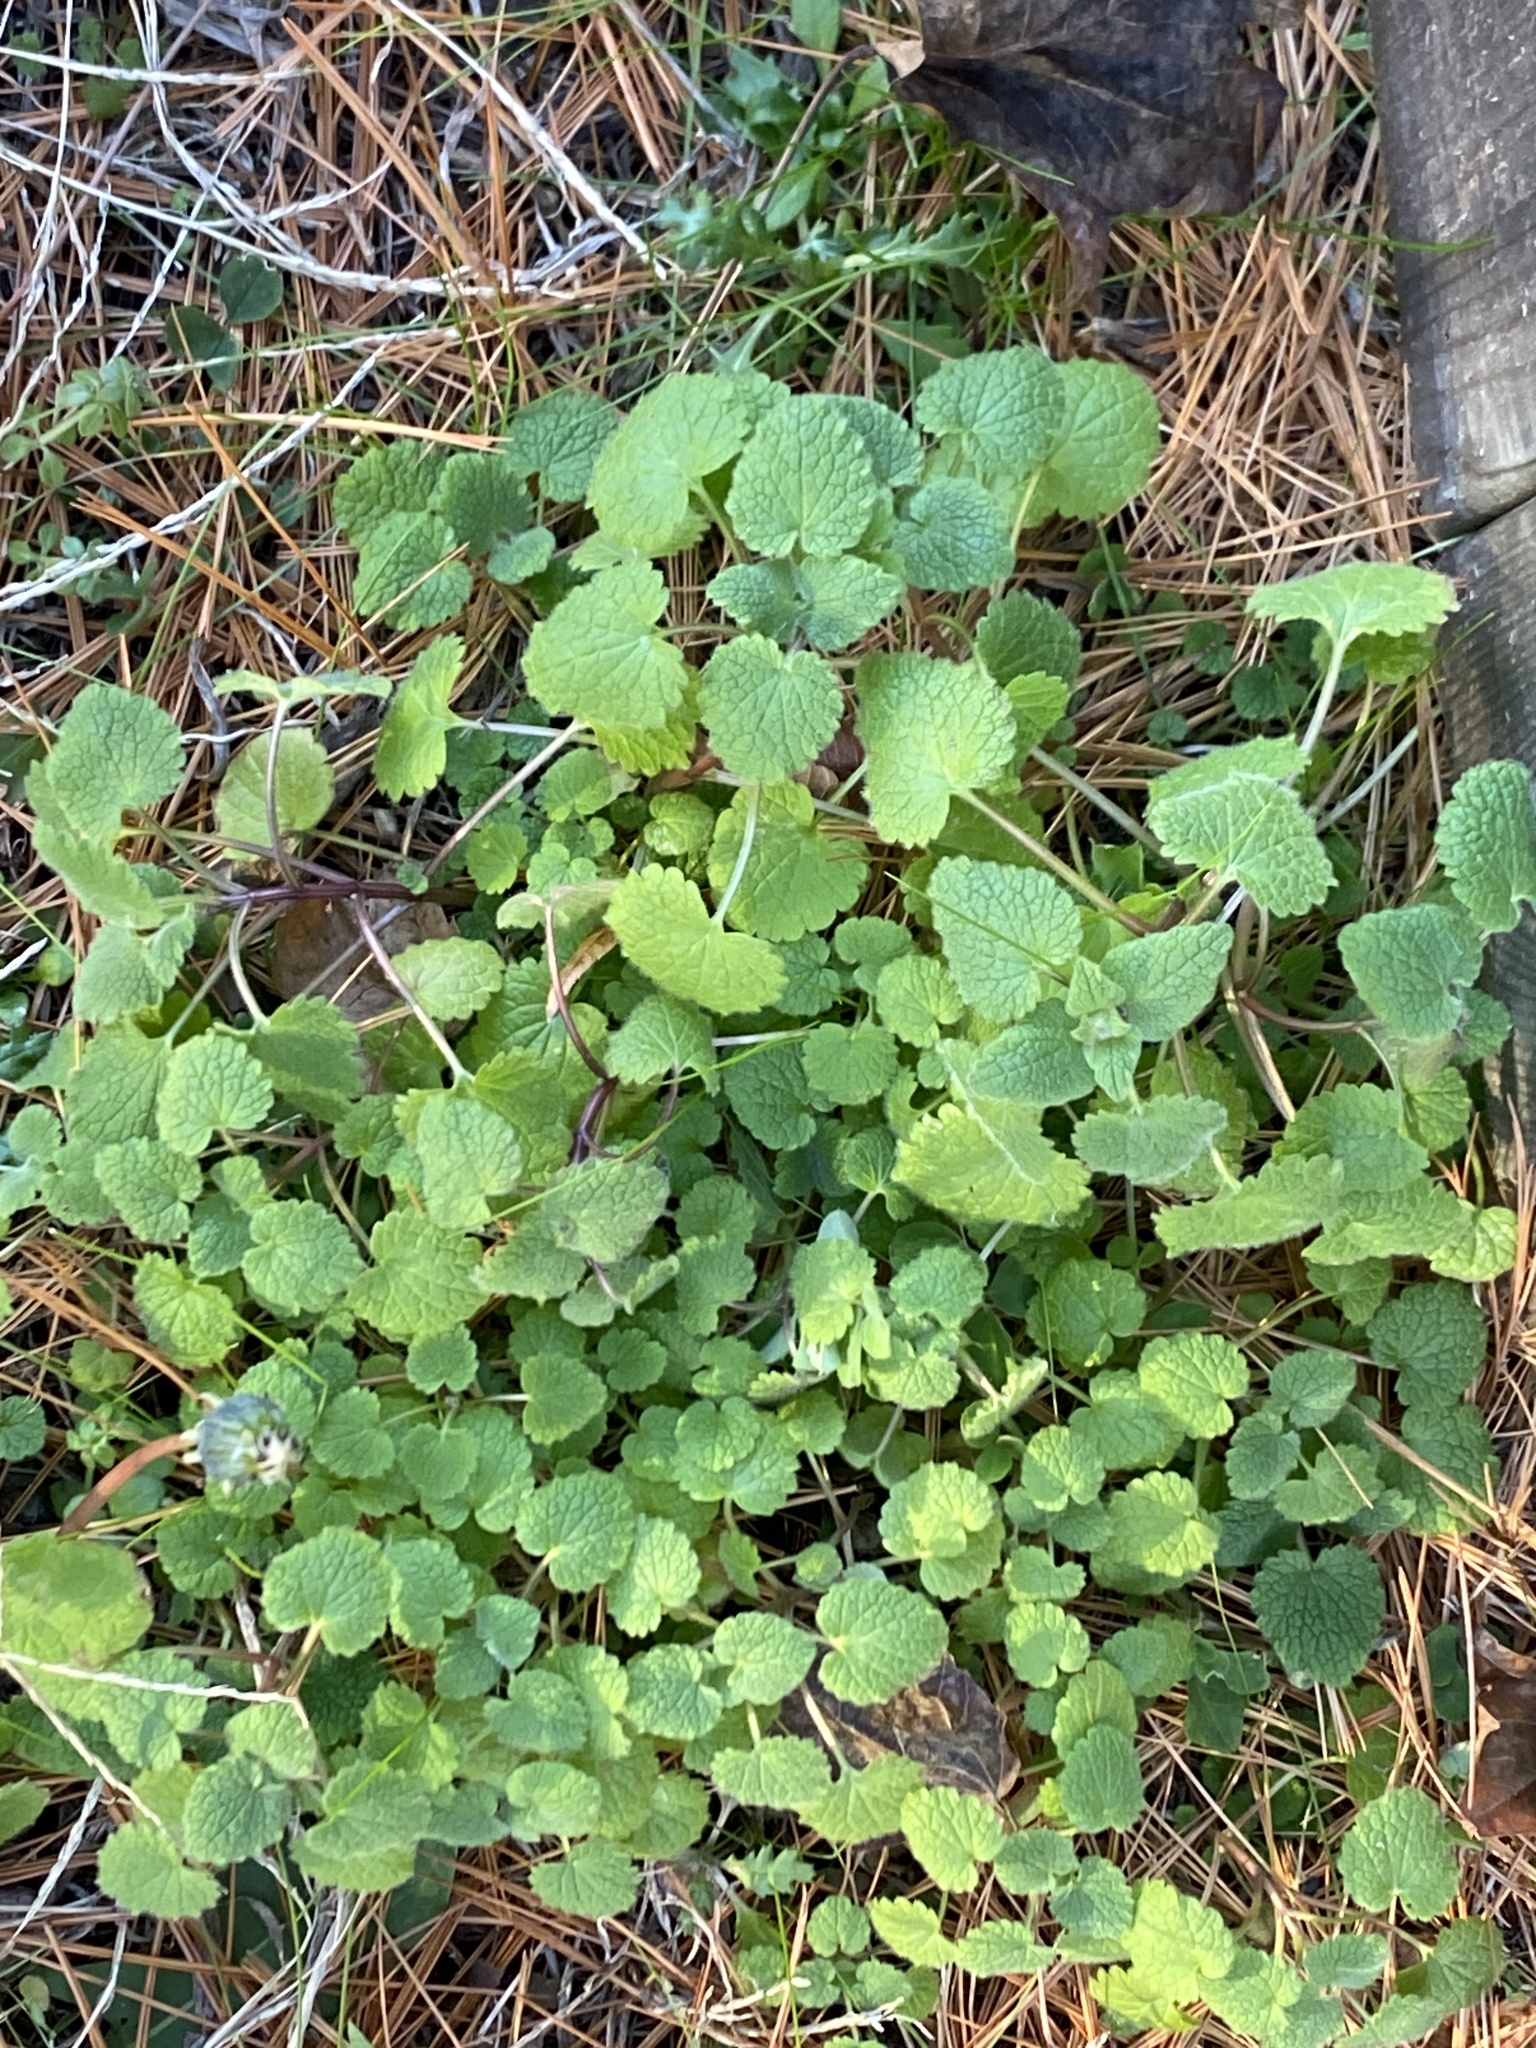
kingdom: Plantae
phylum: Tracheophyta
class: Magnoliopsida
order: Lamiales
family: Lamiaceae
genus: Lamium
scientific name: Lamium purpureum
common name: Red dead-nettle
